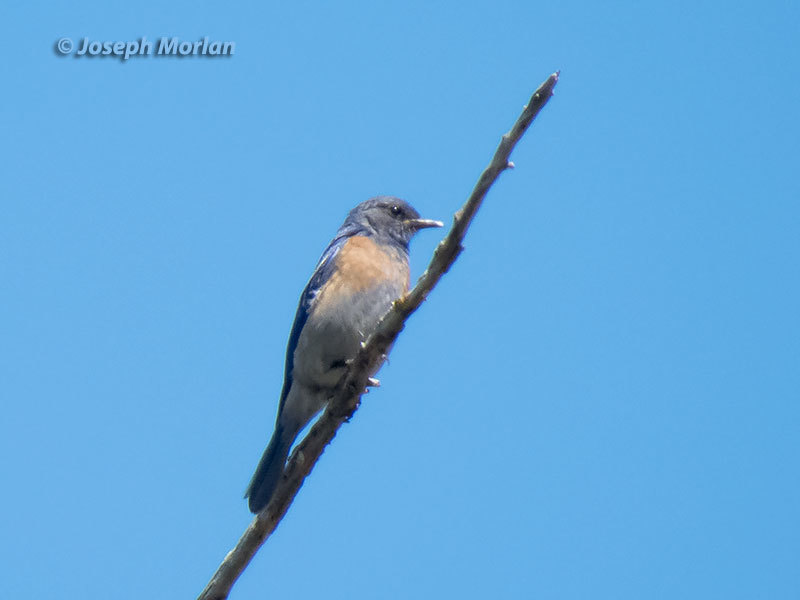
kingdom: Animalia
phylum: Chordata
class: Aves
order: Passeriformes
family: Turdidae
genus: Sialia
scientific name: Sialia mexicana
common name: Western bluebird
